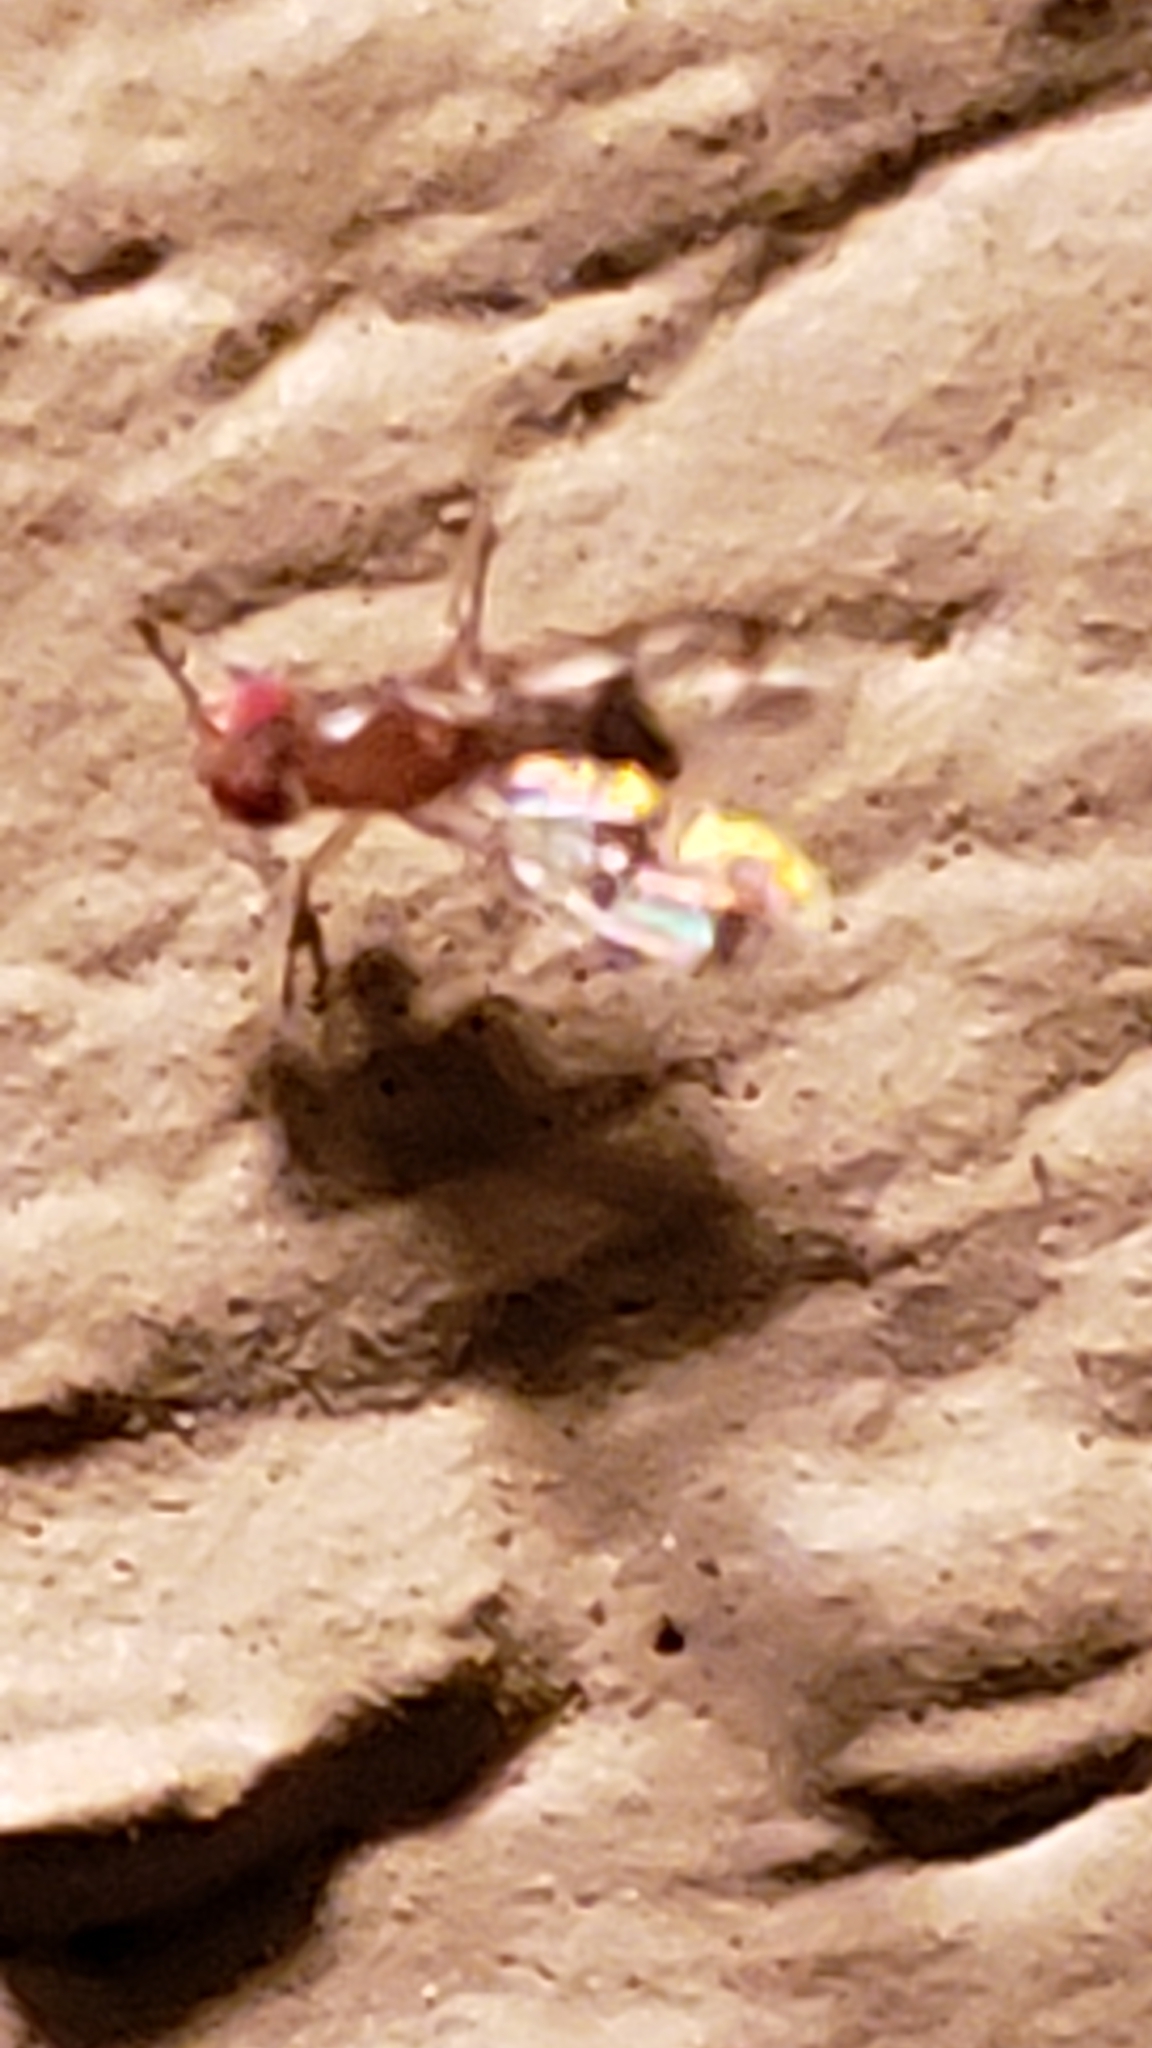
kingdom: Animalia
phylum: Arthropoda
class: Insecta
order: Diptera
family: Drosophilidae
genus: Chymomyza
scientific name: Chymomyza amoena
